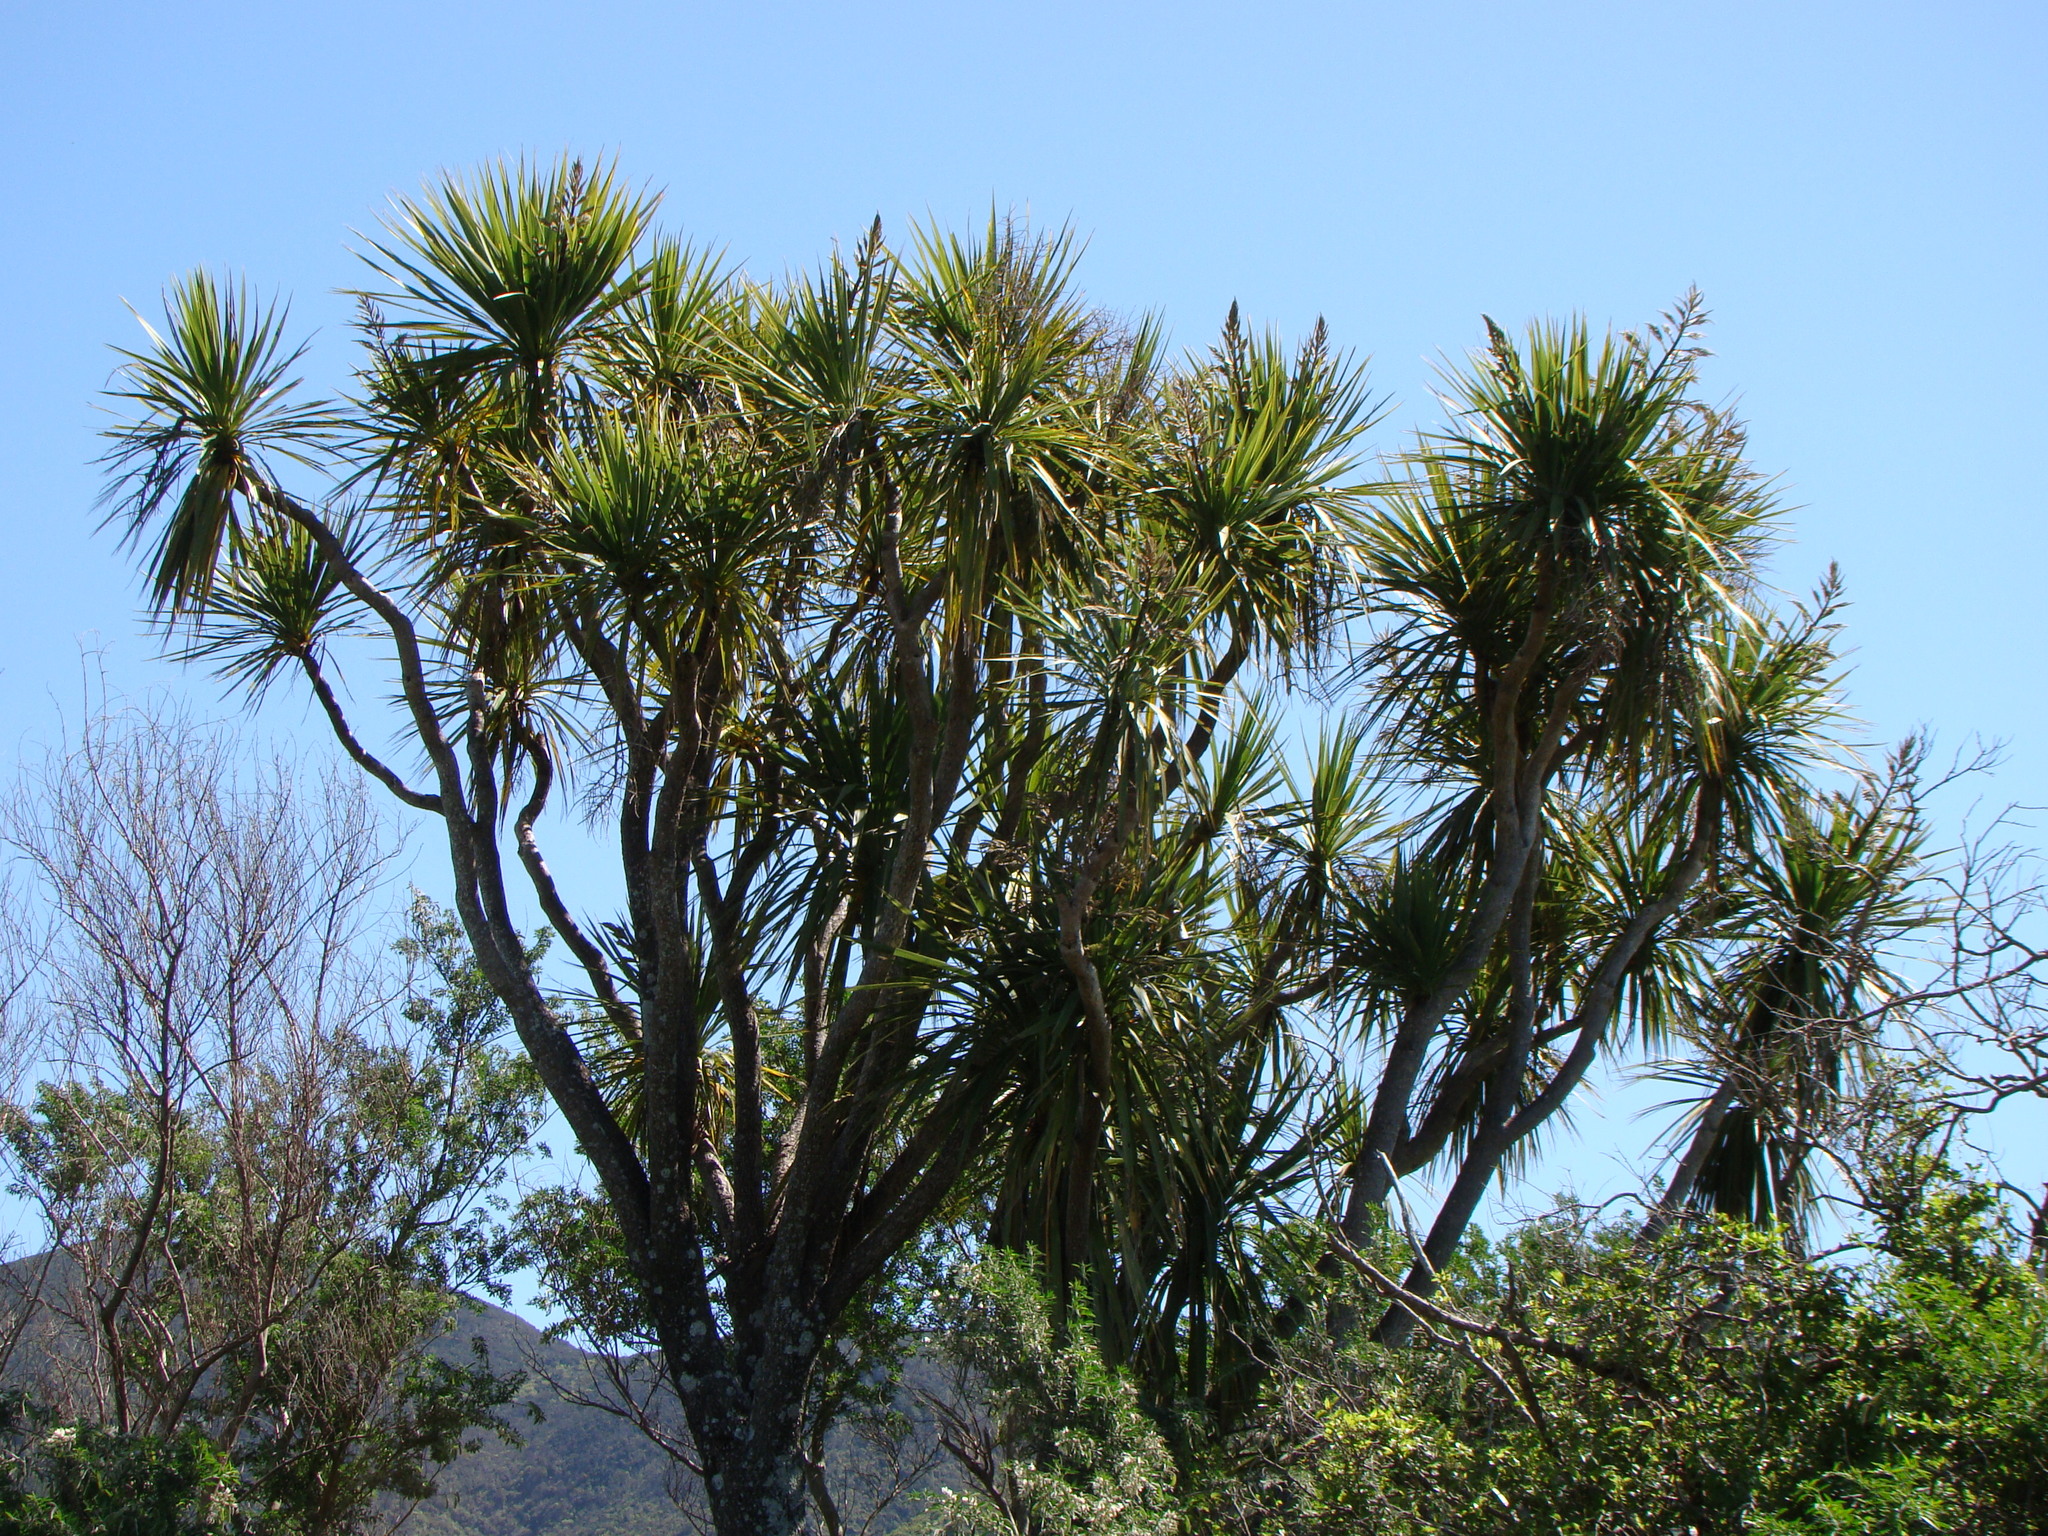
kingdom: Plantae
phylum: Tracheophyta
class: Liliopsida
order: Asparagales
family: Asparagaceae
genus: Cordyline
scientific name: Cordyline australis
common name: Cabbage-palm
